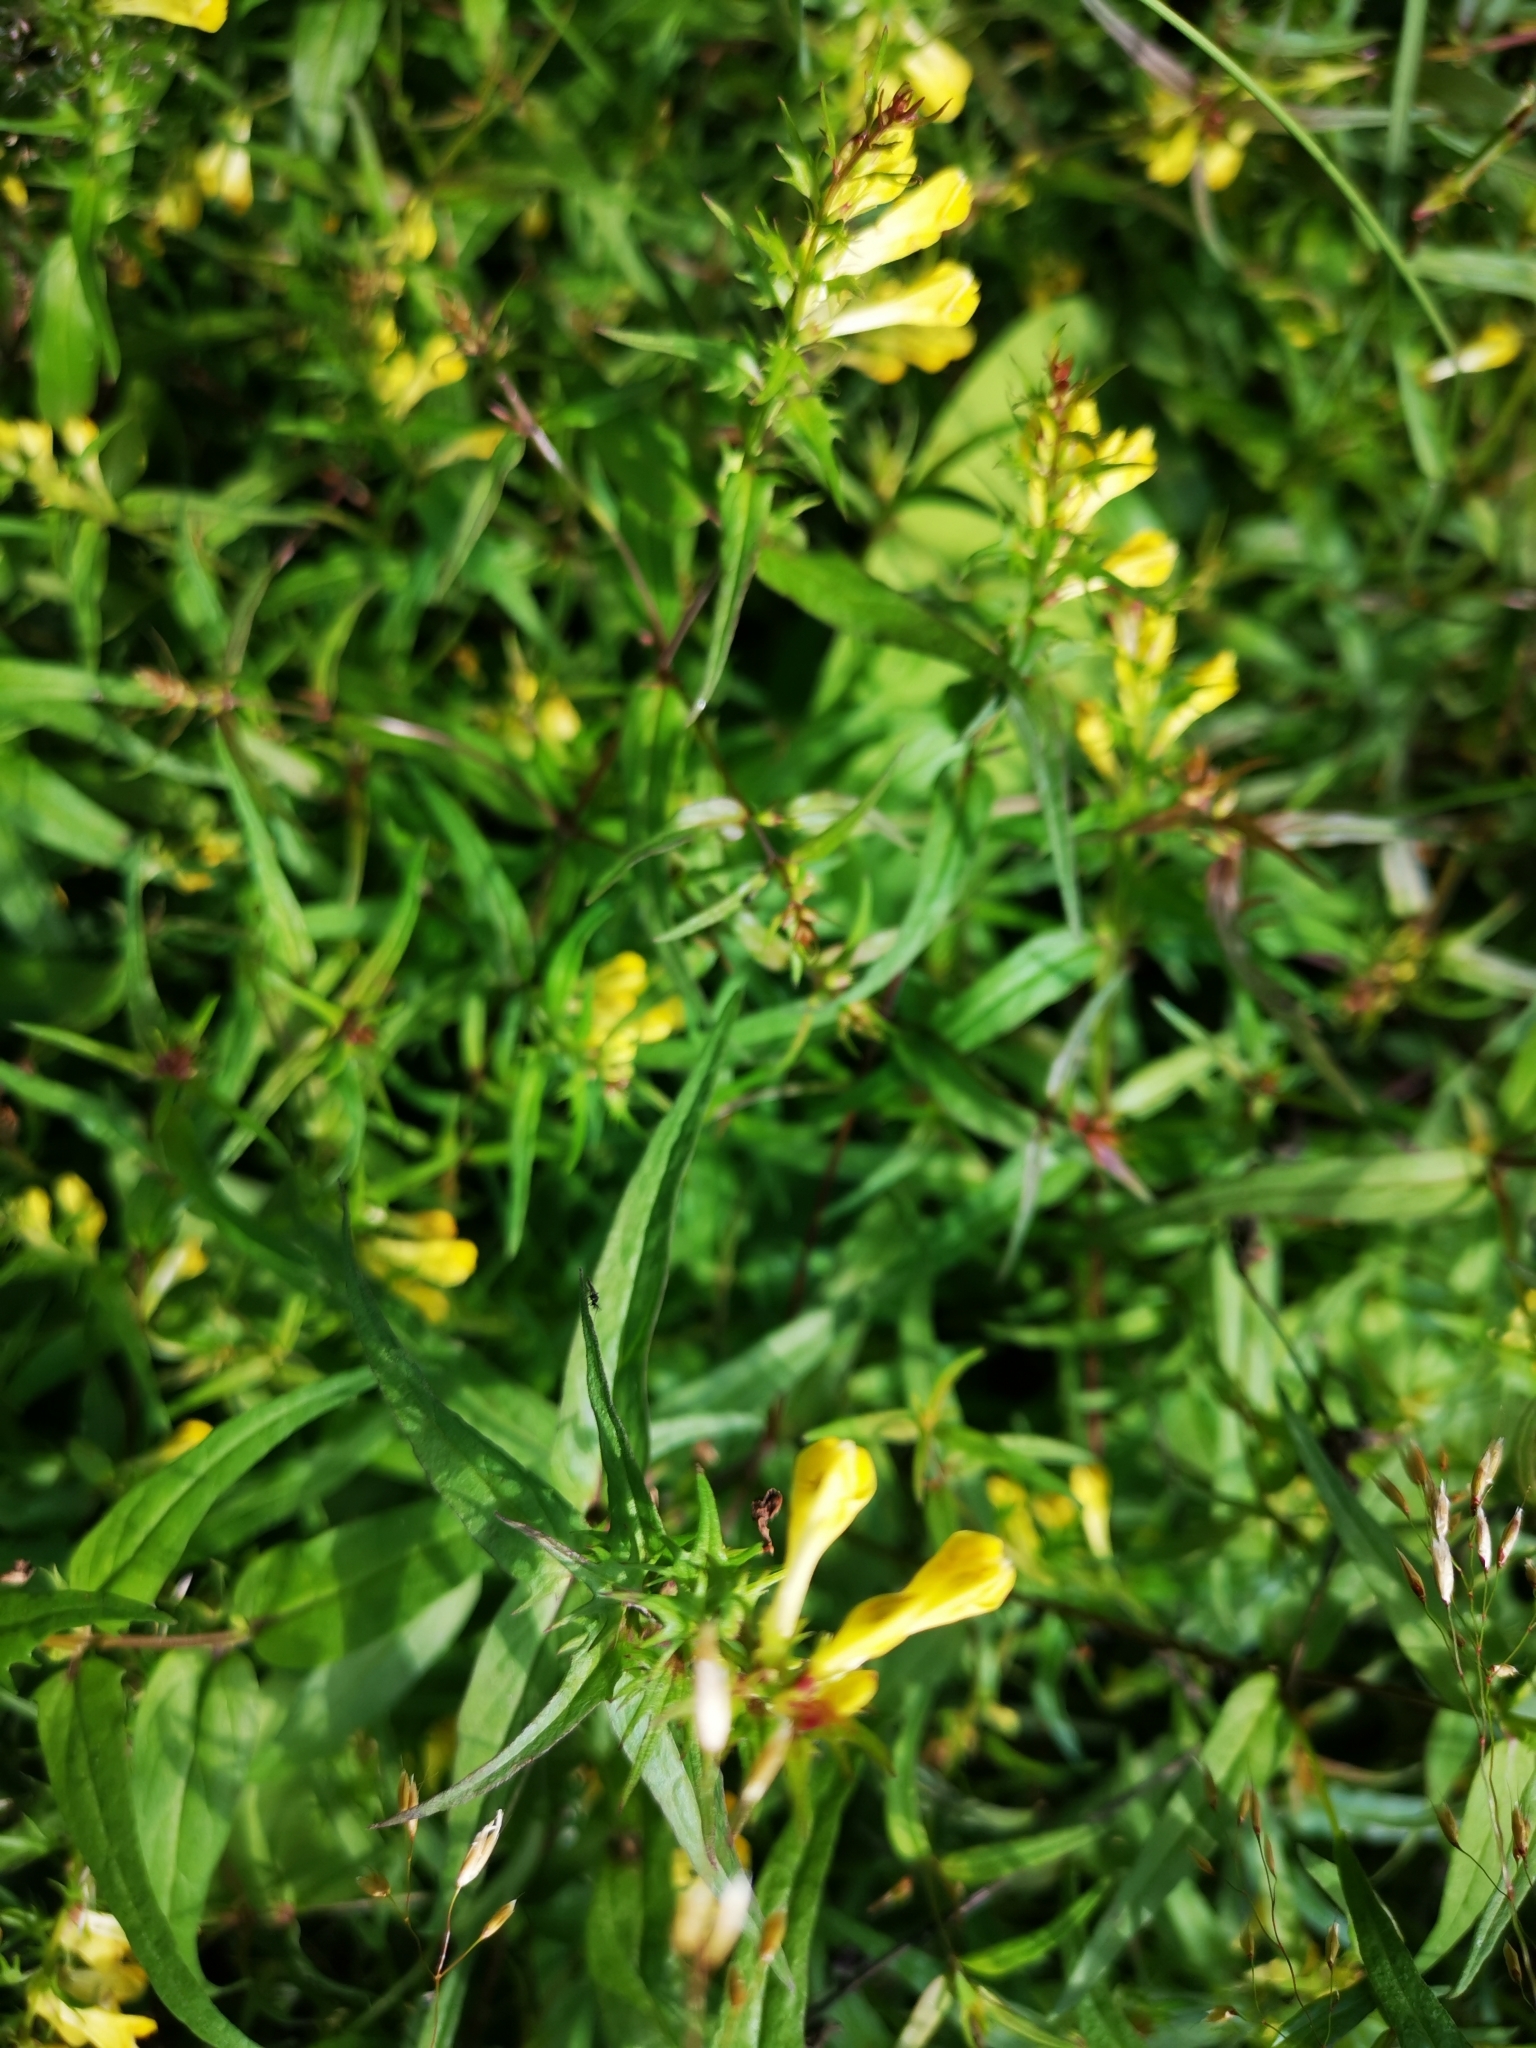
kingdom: Plantae
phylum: Tracheophyta
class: Magnoliopsida
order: Lamiales
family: Orobanchaceae
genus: Melampyrum
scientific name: Melampyrum pratense
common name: Common cow-wheat
